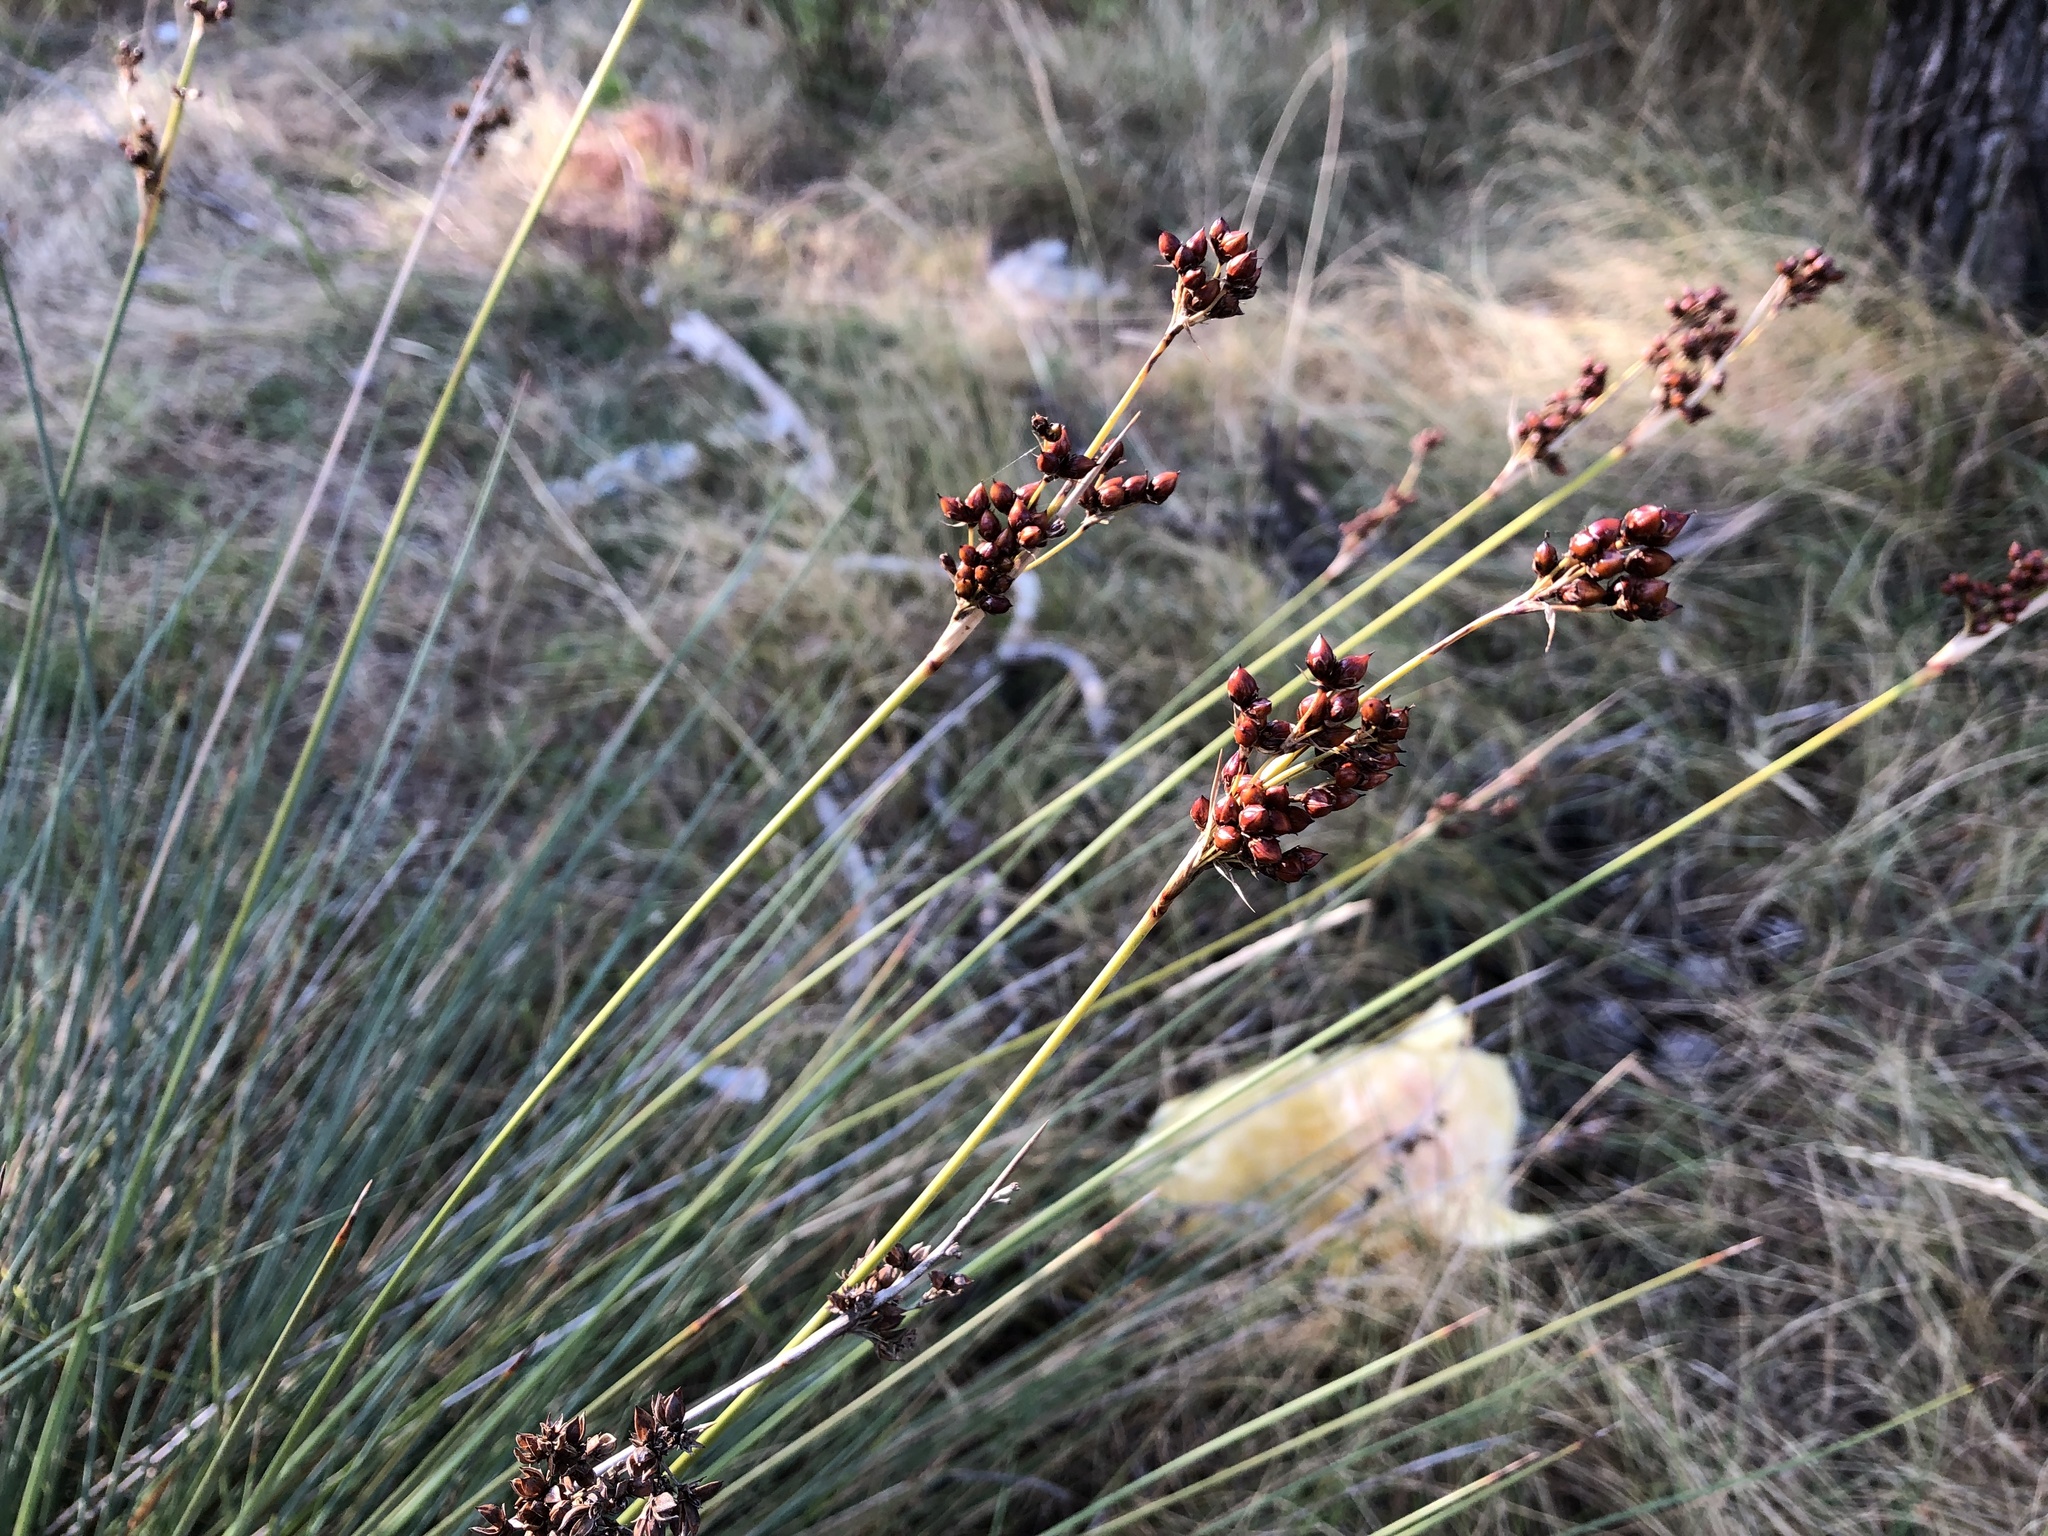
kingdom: Plantae
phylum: Tracheophyta
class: Liliopsida
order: Poales
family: Juncaceae
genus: Juncus
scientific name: Juncus acutus
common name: Sharp rush
